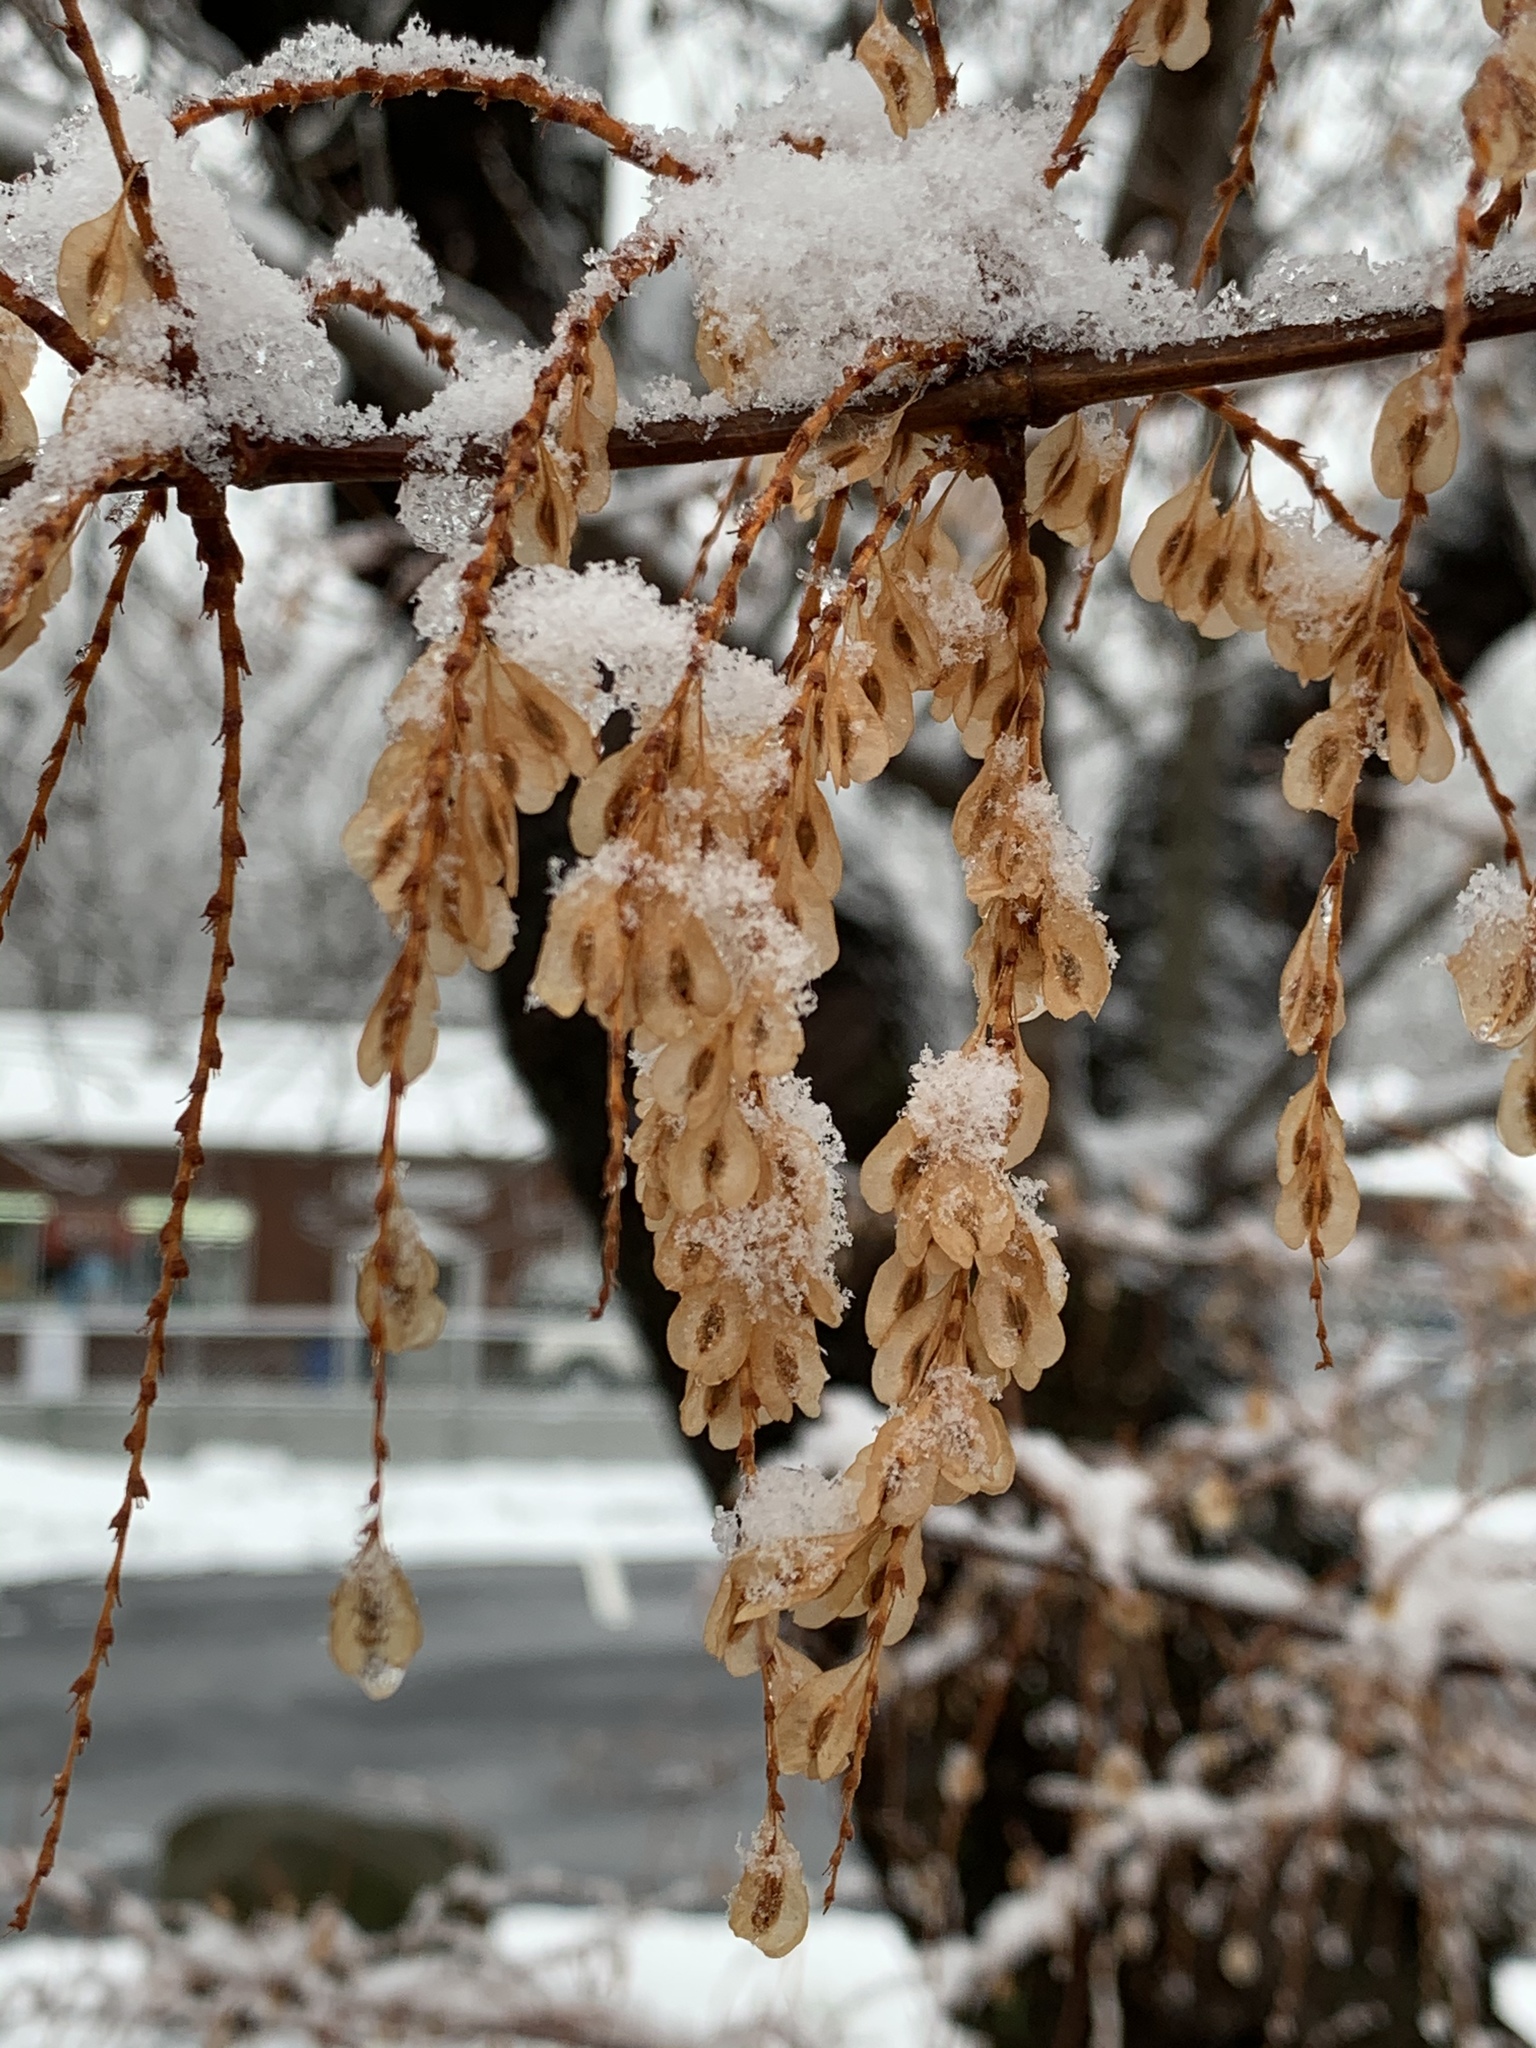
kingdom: Plantae
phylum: Tracheophyta
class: Magnoliopsida
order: Caryophyllales
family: Polygonaceae
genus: Reynoutria
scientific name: Reynoutria japonica
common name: Japanese knotweed
